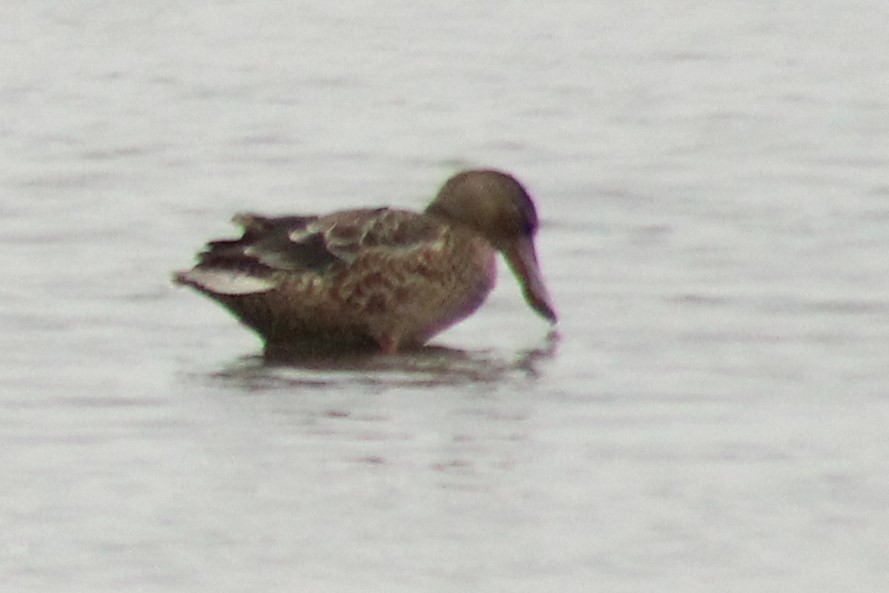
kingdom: Animalia
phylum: Chordata
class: Aves
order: Anseriformes
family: Anatidae
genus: Spatula
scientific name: Spatula clypeata
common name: Northern shoveler
